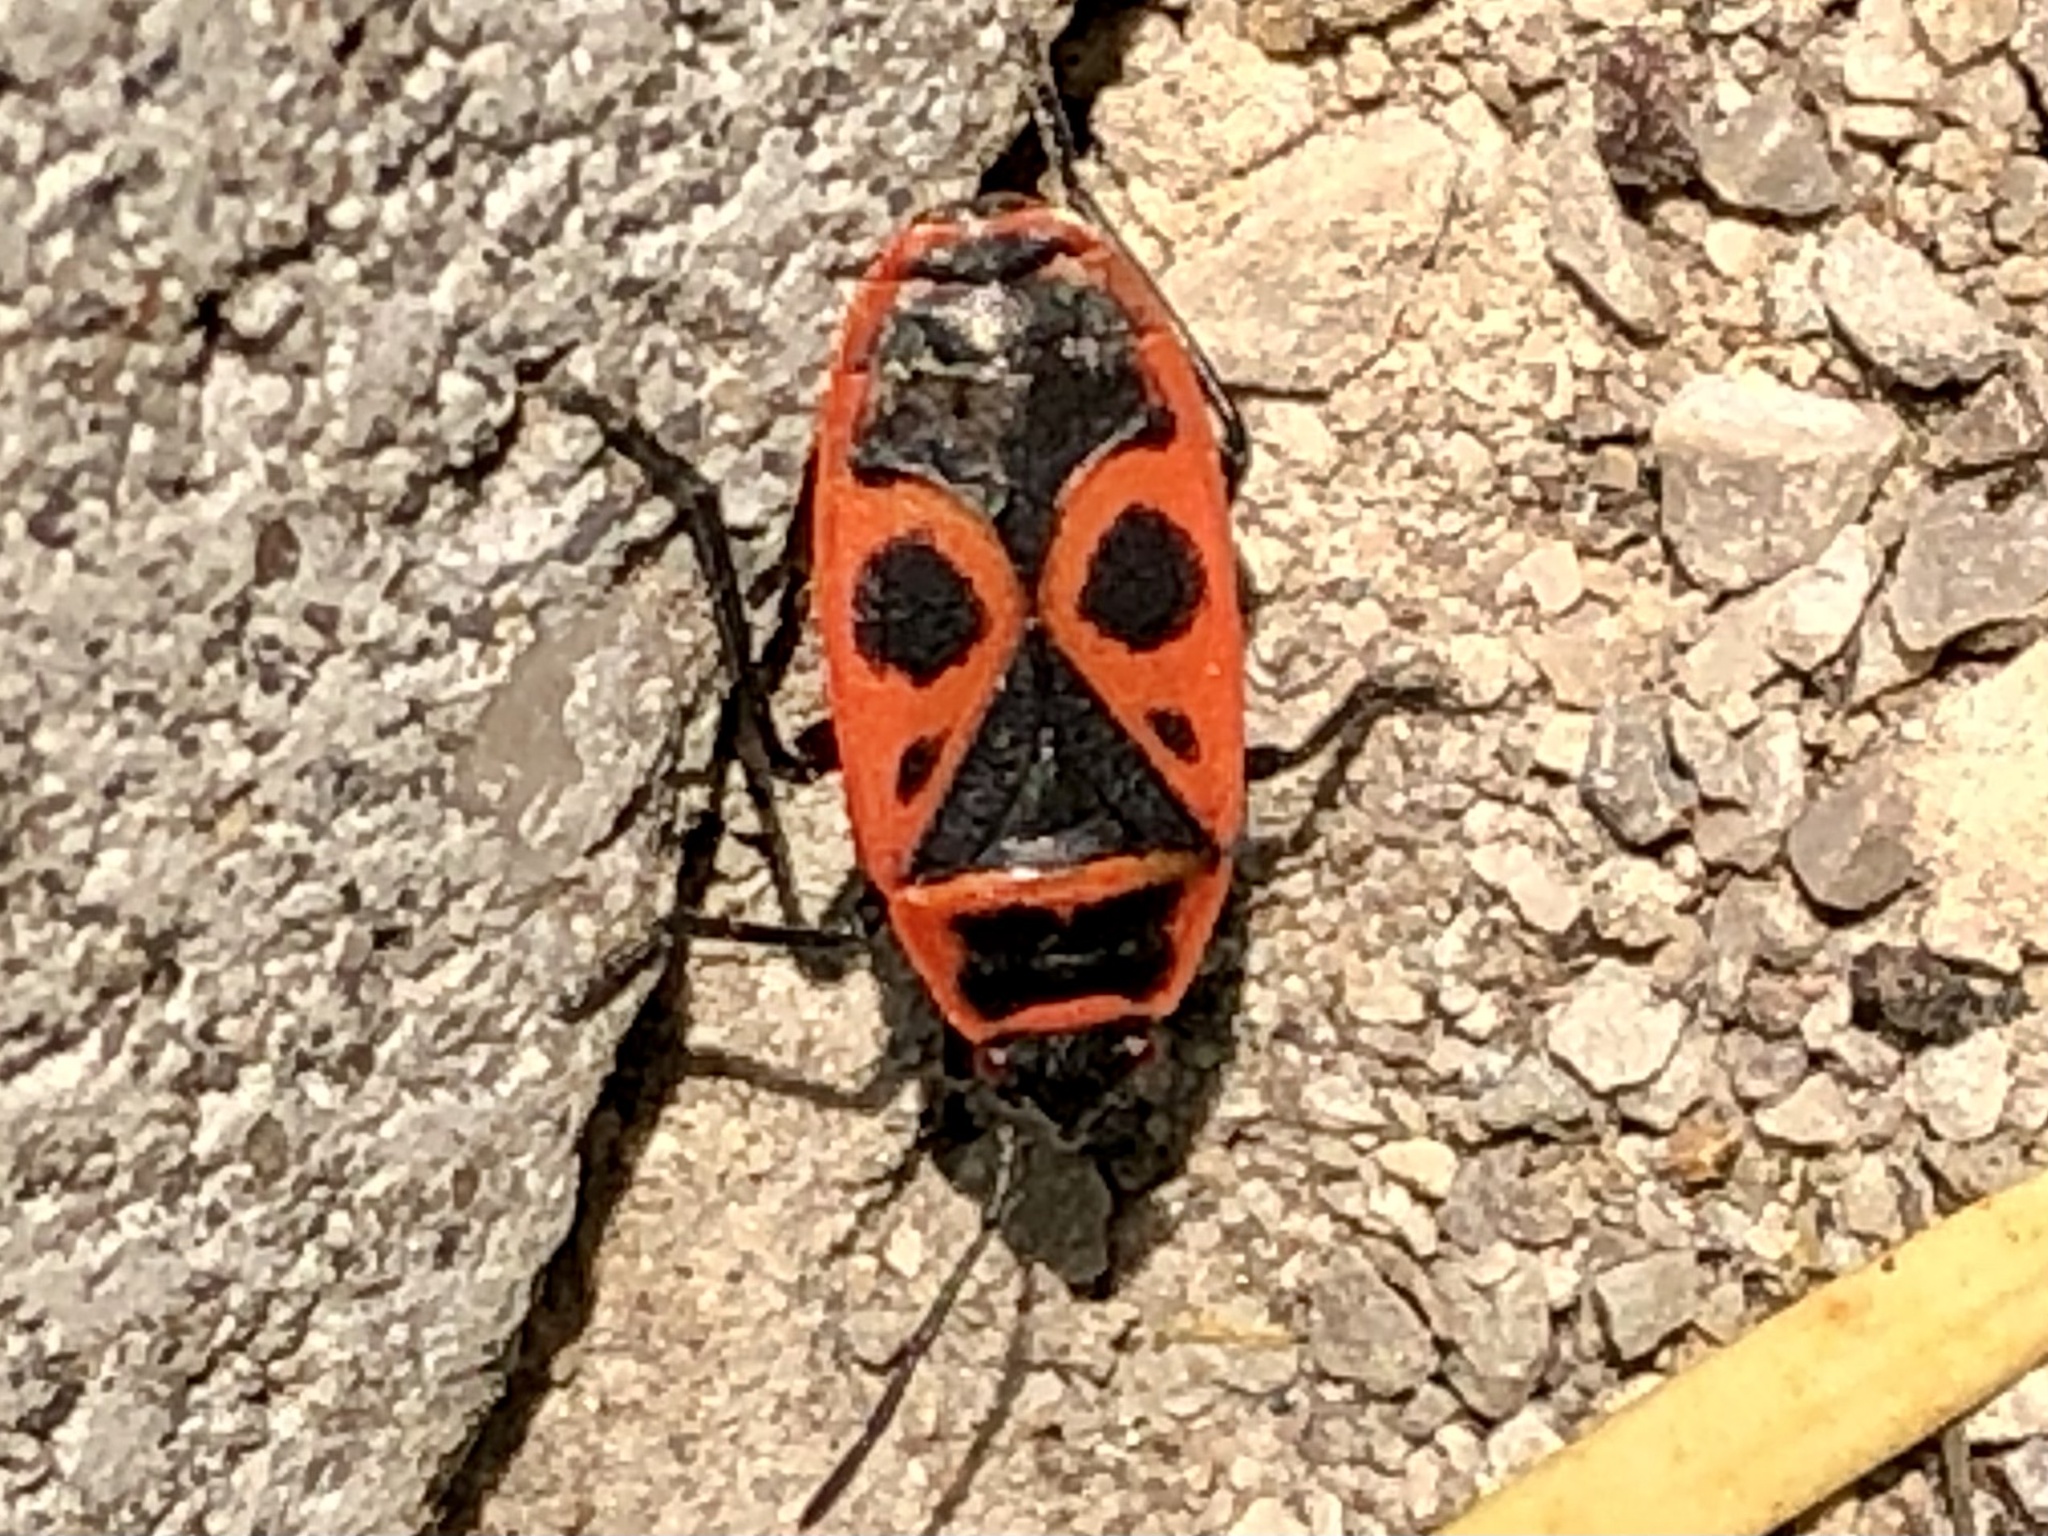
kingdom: Animalia
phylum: Arthropoda
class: Insecta
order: Hemiptera
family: Pyrrhocoridae
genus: Pyrrhocoris
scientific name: Pyrrhocoris apterus
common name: Firebug
